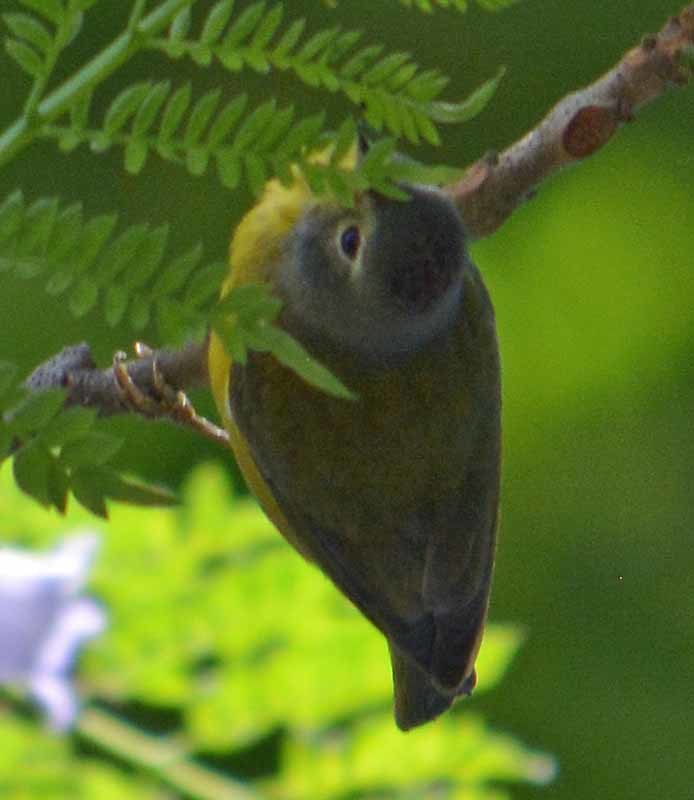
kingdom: Animalia
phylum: Chordata
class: Aves
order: Passeriformes
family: Parulidae
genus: Leiothlypis
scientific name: Leiothlypis ruficapilla
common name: Nashville warbler
